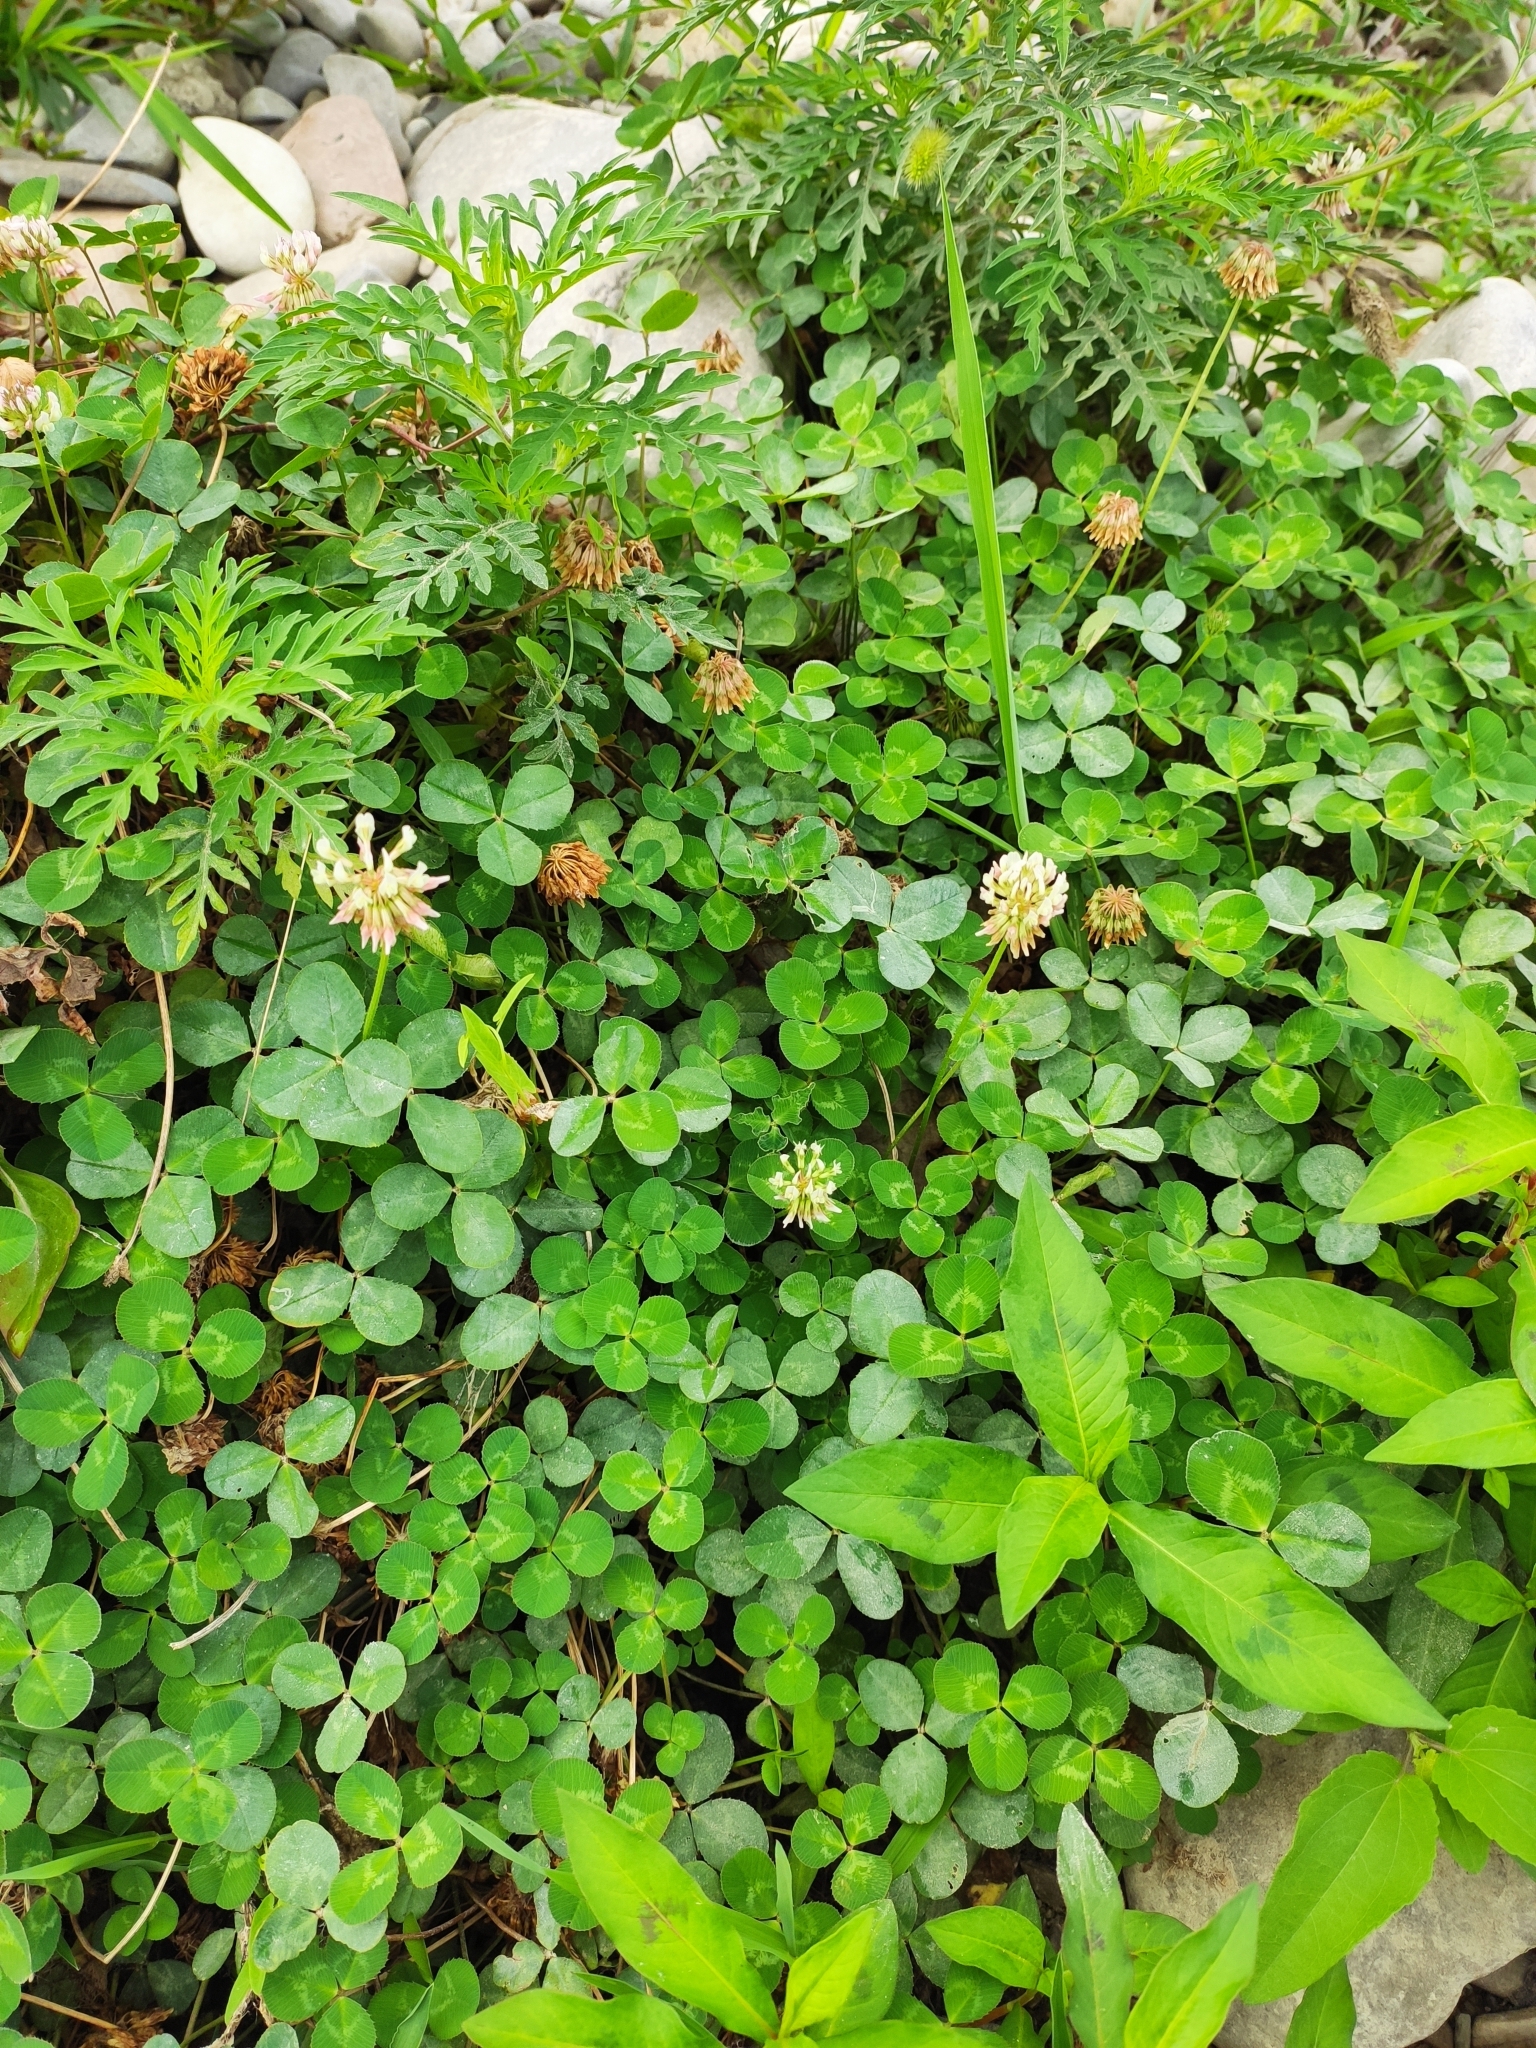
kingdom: Plantae
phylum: Tracheophyta
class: Magnoliopsida
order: Fabales
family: Fabaceae
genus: Trifolium
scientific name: Trifolium repens
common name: White clover
